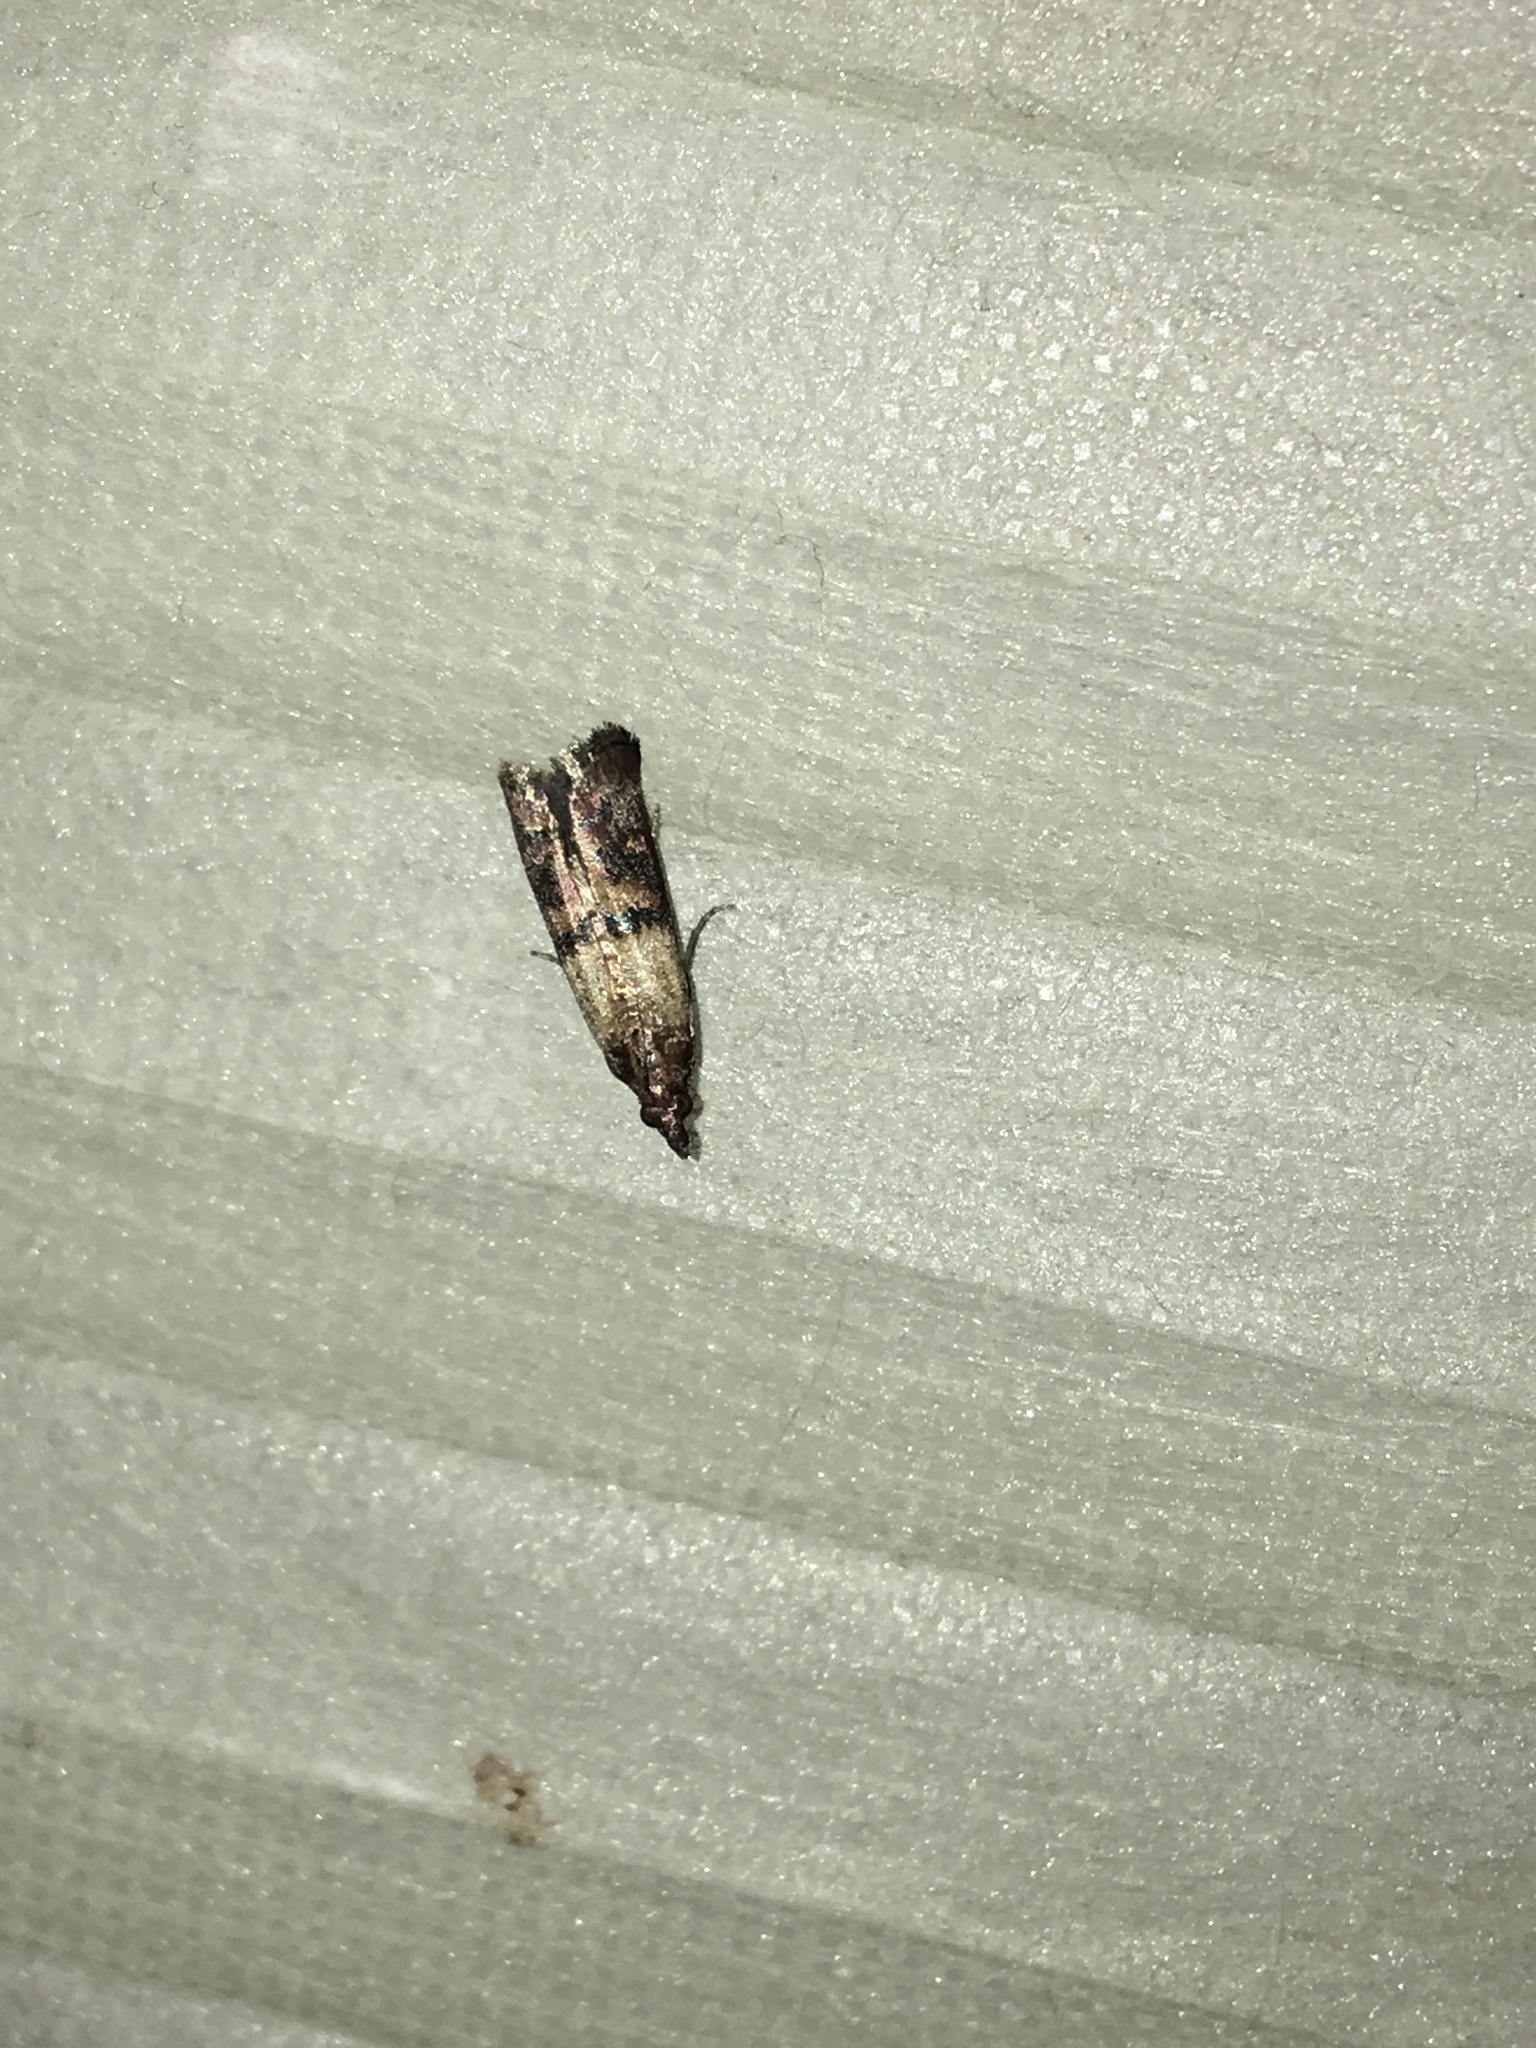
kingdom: Animalia
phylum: Arthropoda
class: Insecta
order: Lepidoptera
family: Pyralidae
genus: Plodia
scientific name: Plodia interpunctella
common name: Indian meal moth
